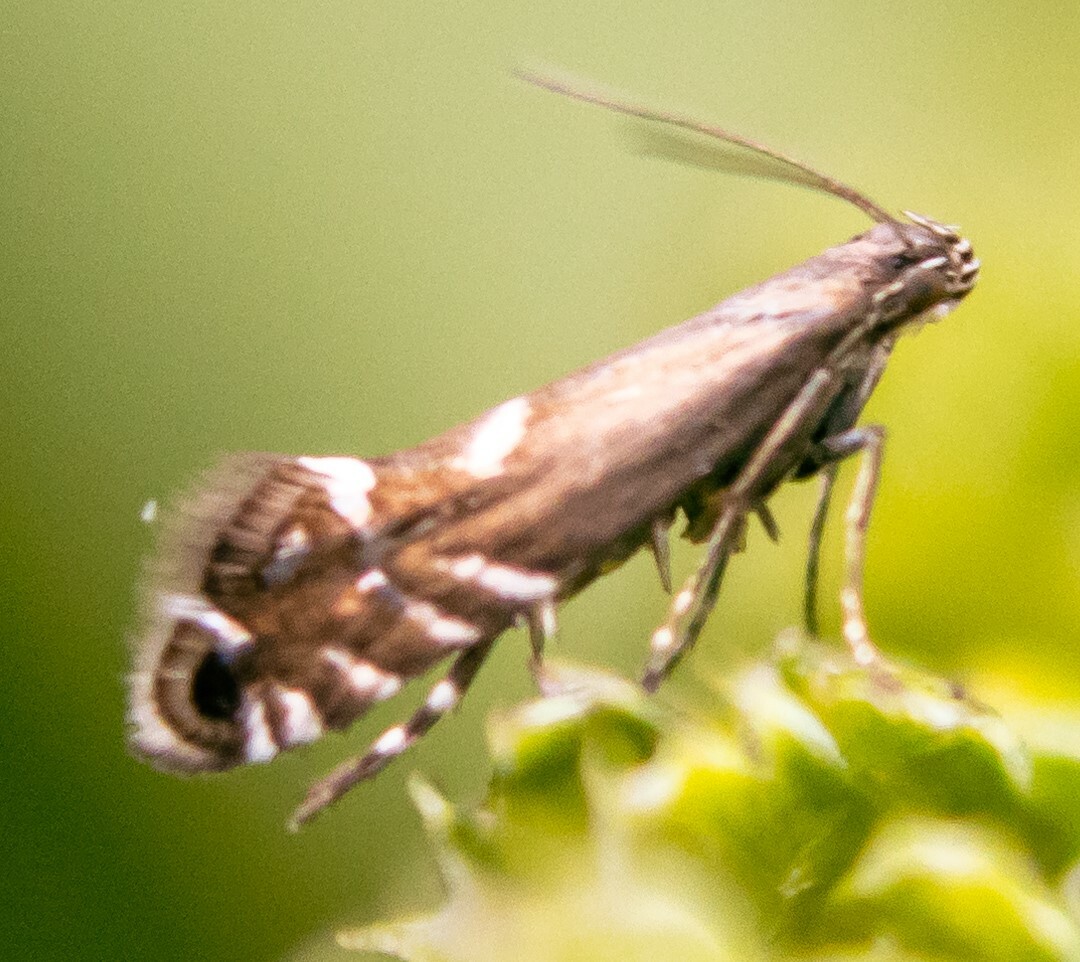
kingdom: Animalia
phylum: Arthropoda
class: Insecta
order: Lepidoptera
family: Glyphipterigidae
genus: Glyphipterix
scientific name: Glyphipterix simpliciella
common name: Cocksfoot moth
